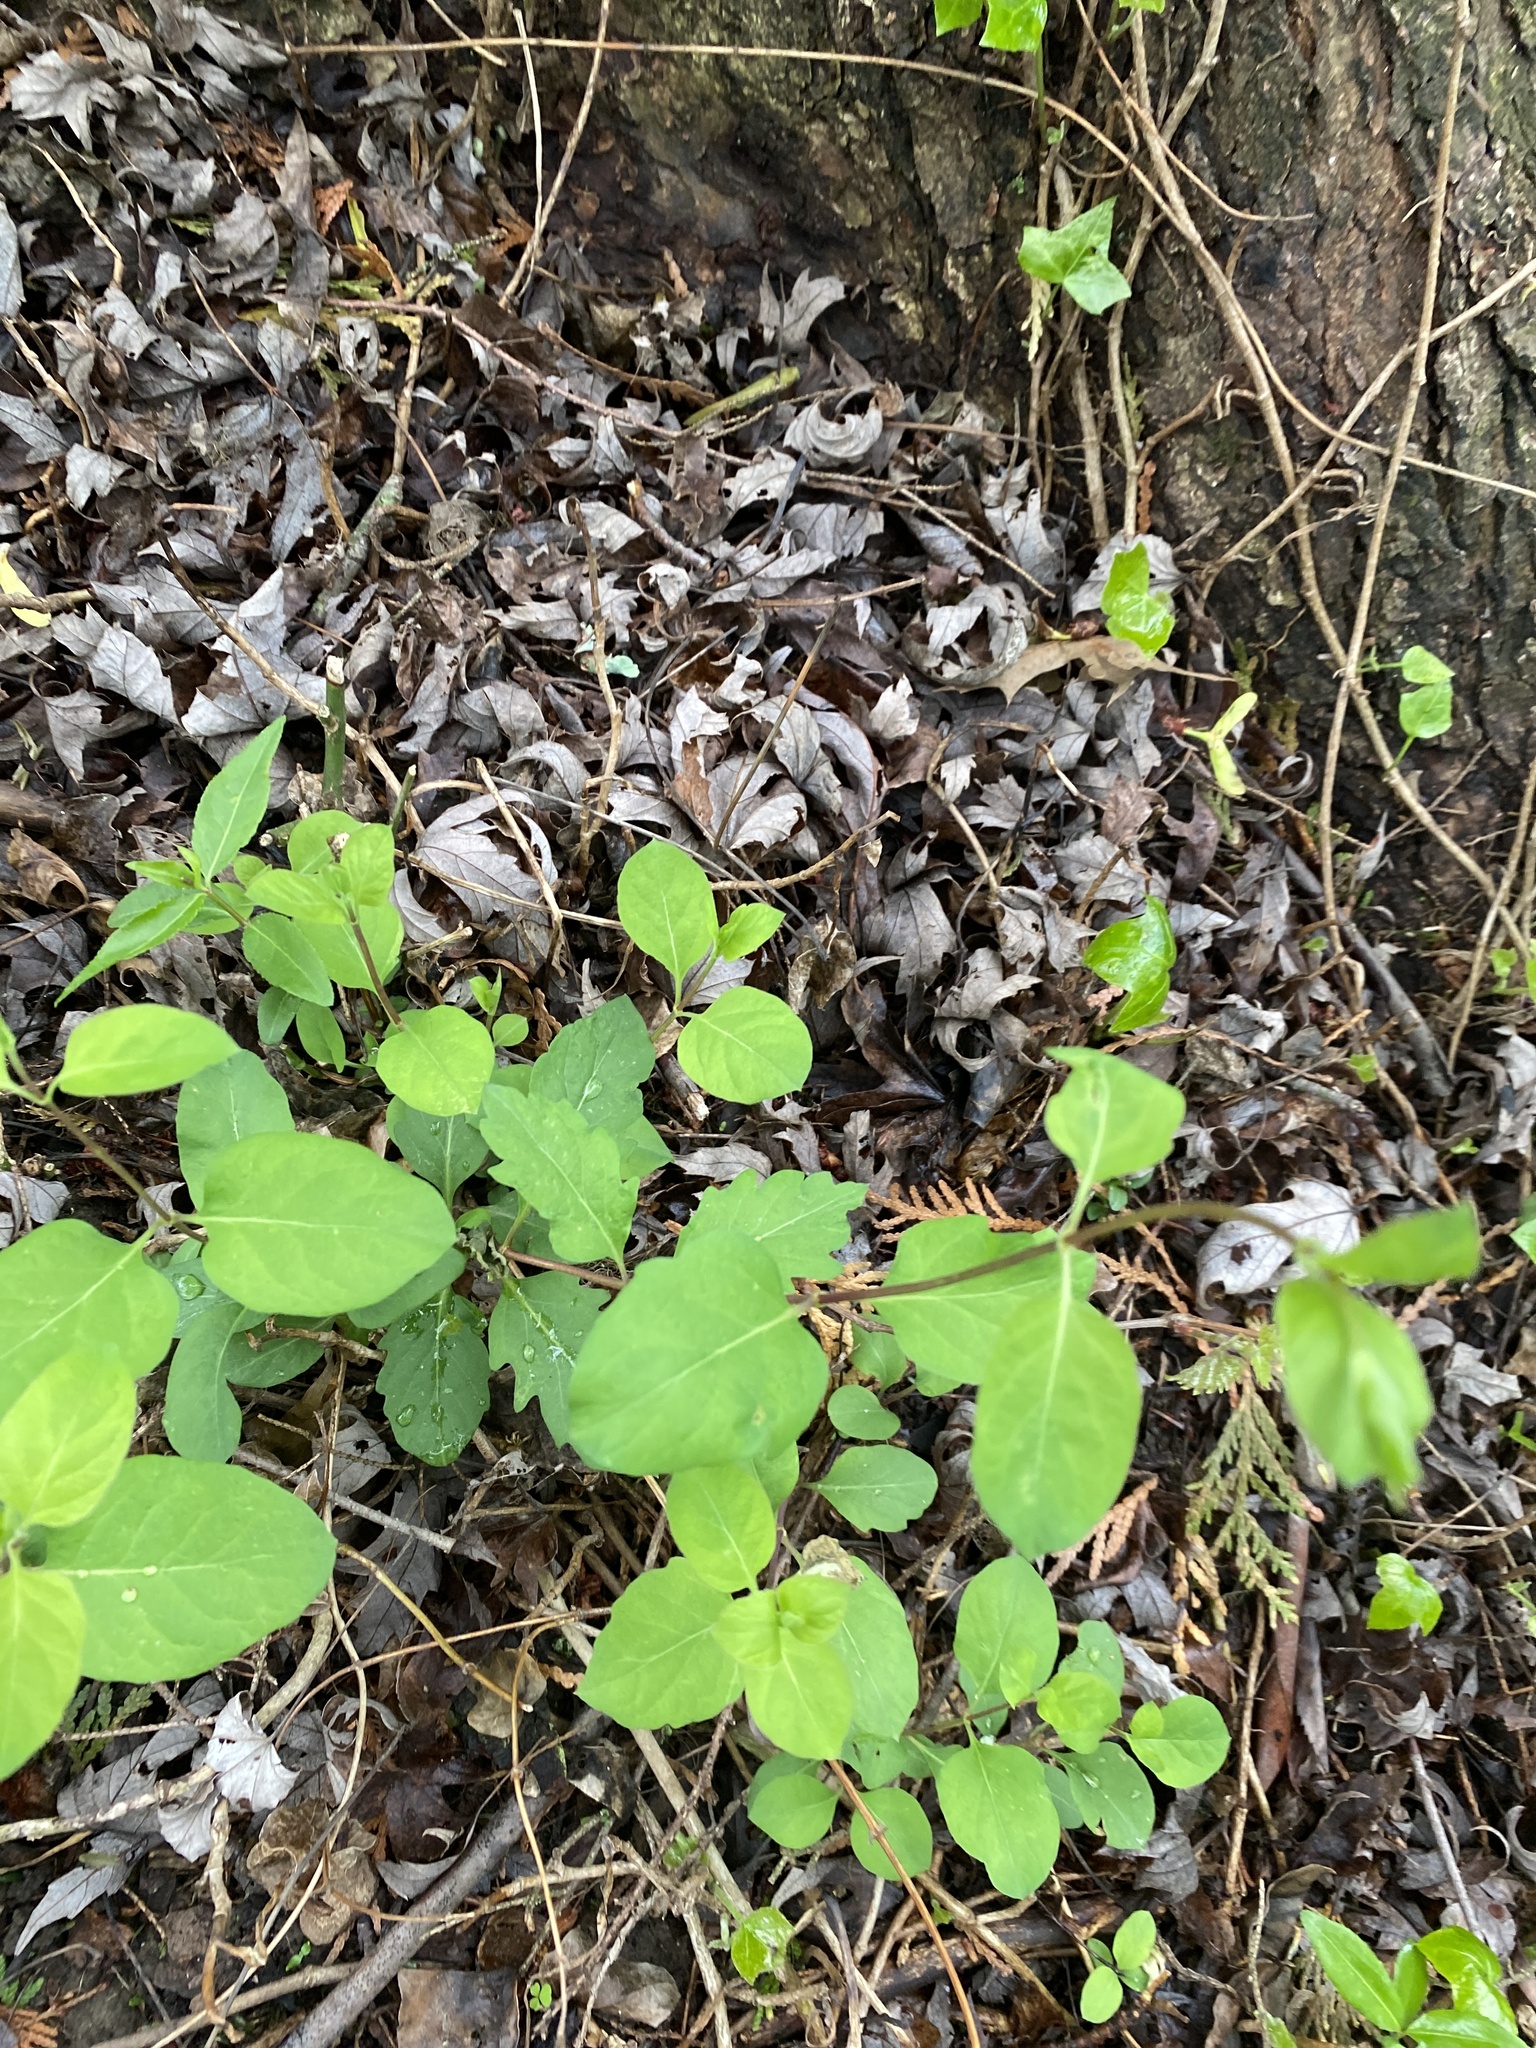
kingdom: Plantae
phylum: Tracheophyta
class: Magnoliopsida
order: Dipsacales
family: Caprifoliaceae
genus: Lonicera
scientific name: Lonicera japonica
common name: Japanese honeysuckle
